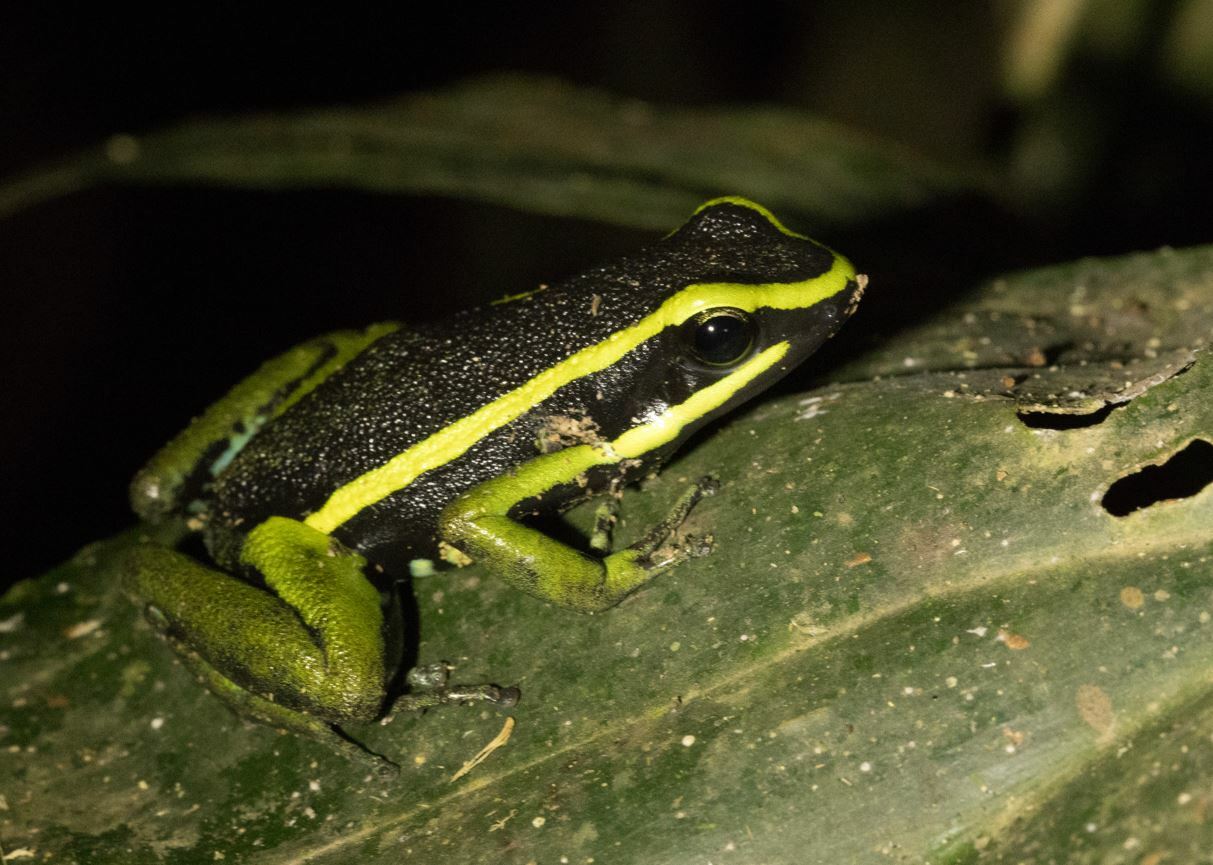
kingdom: Animalia
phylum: Chordata
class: Amphibia
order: Anura
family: Dendrobatidae
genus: Ameerega
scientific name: Ameerega trivittata
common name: Three-striped arrow-poison frog
